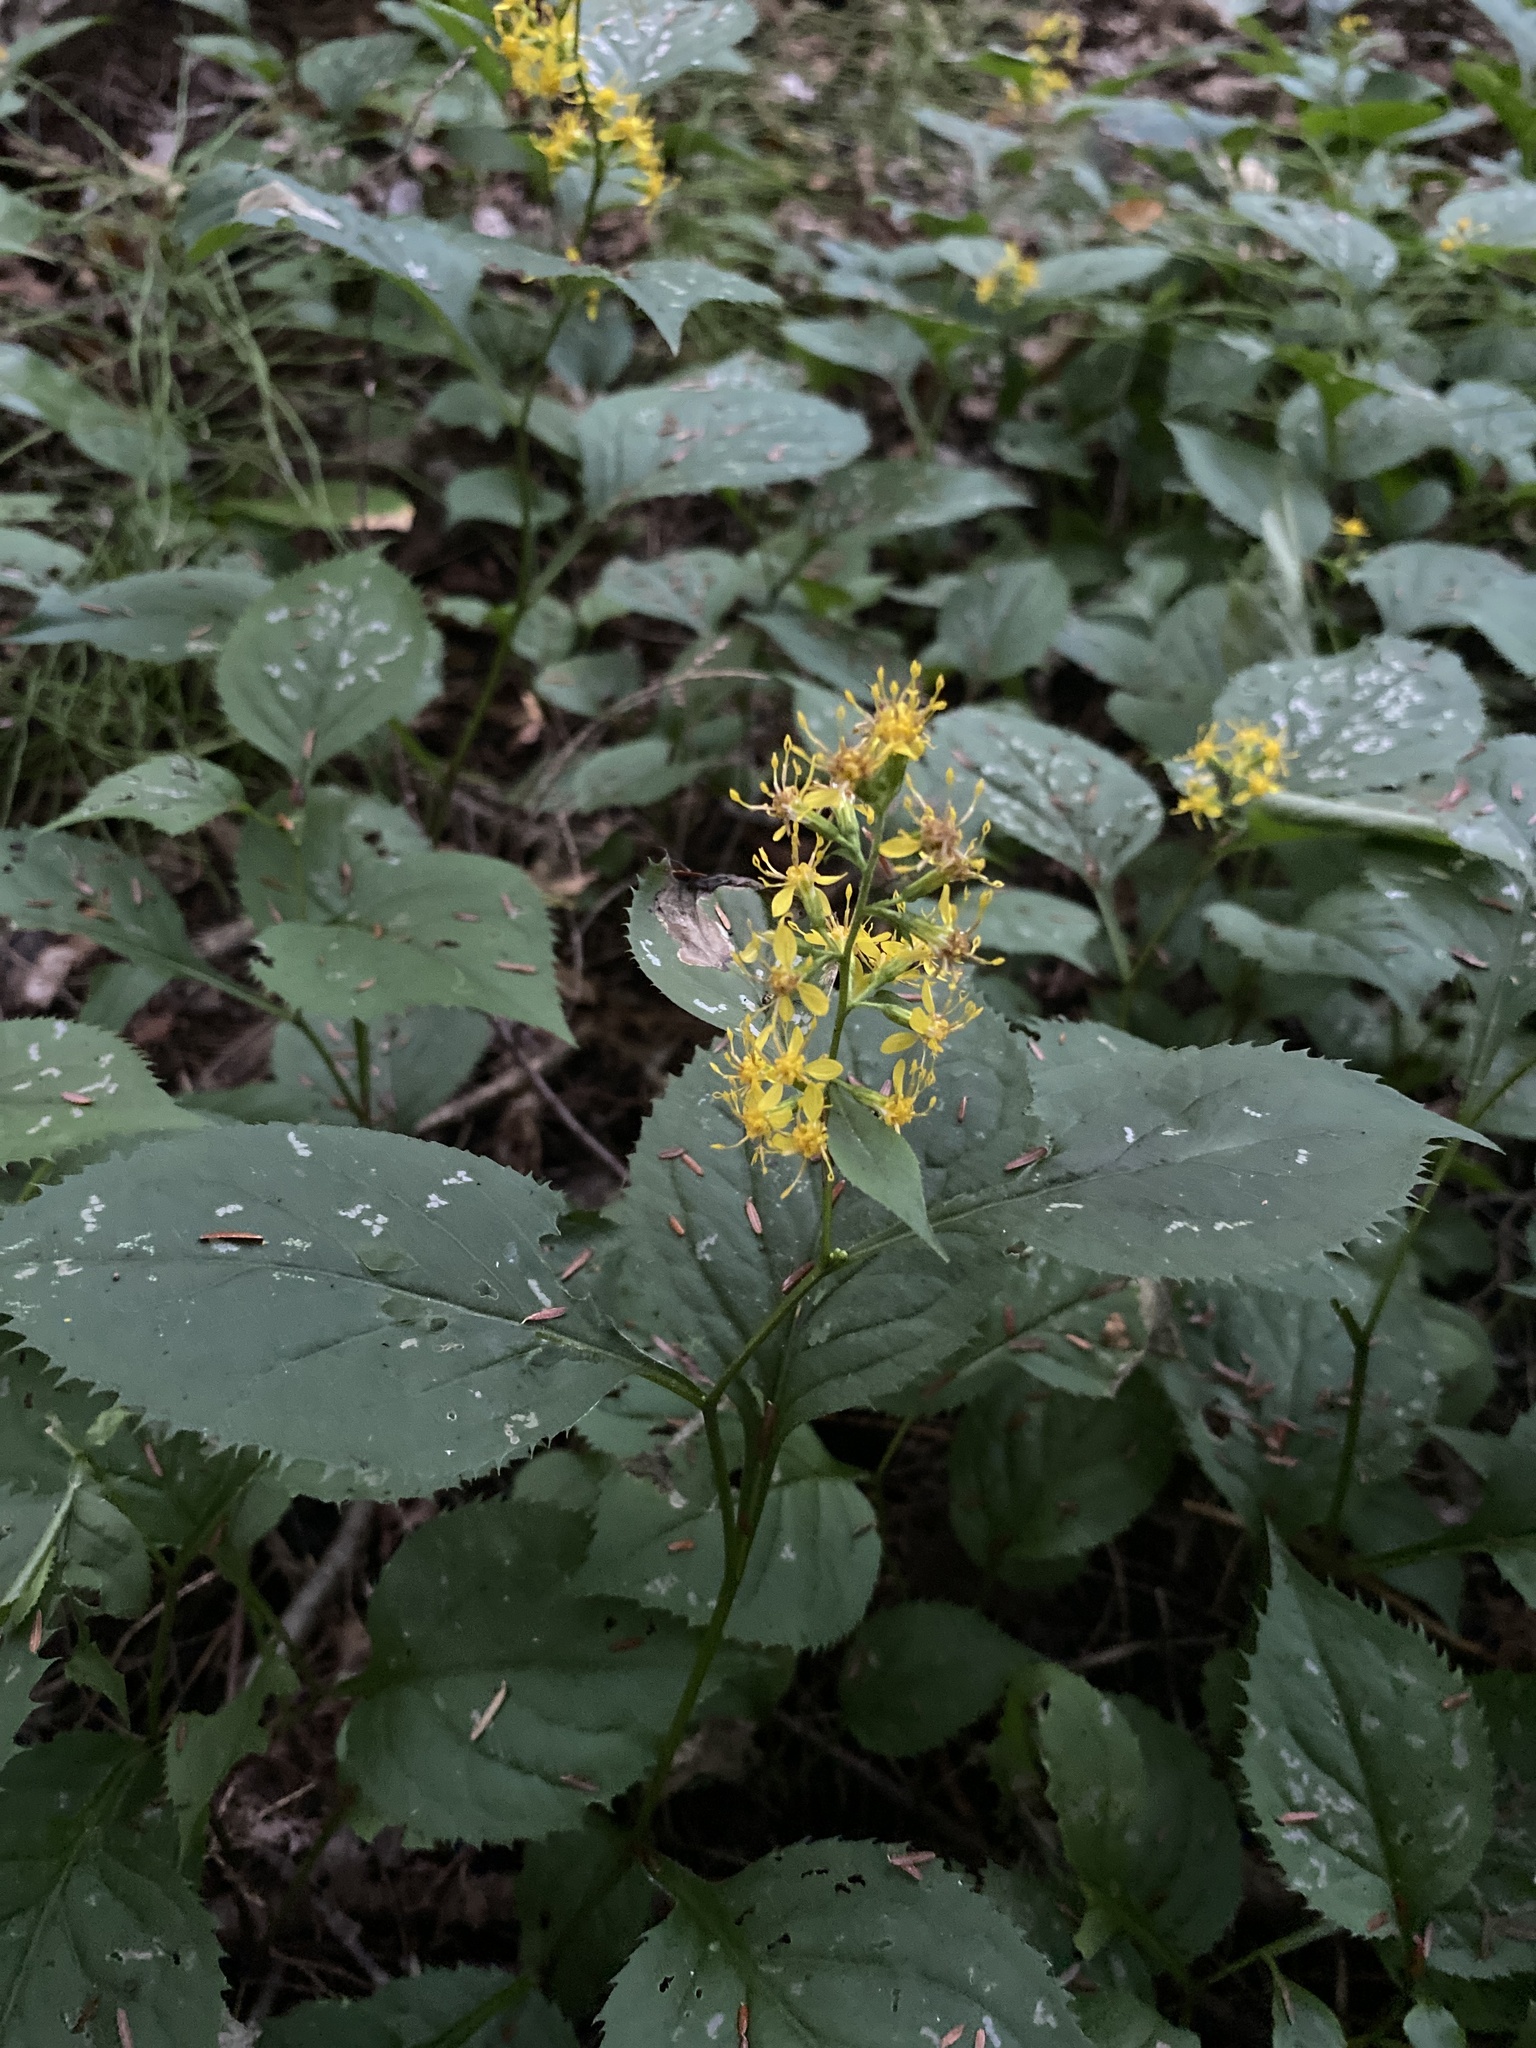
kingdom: Plantae
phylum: Tracheophyta
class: Magnoliopsida
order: Asterales
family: Asteraceae
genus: Solidago
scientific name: Solidago flexicaulis
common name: Zig-zag goldenrod
